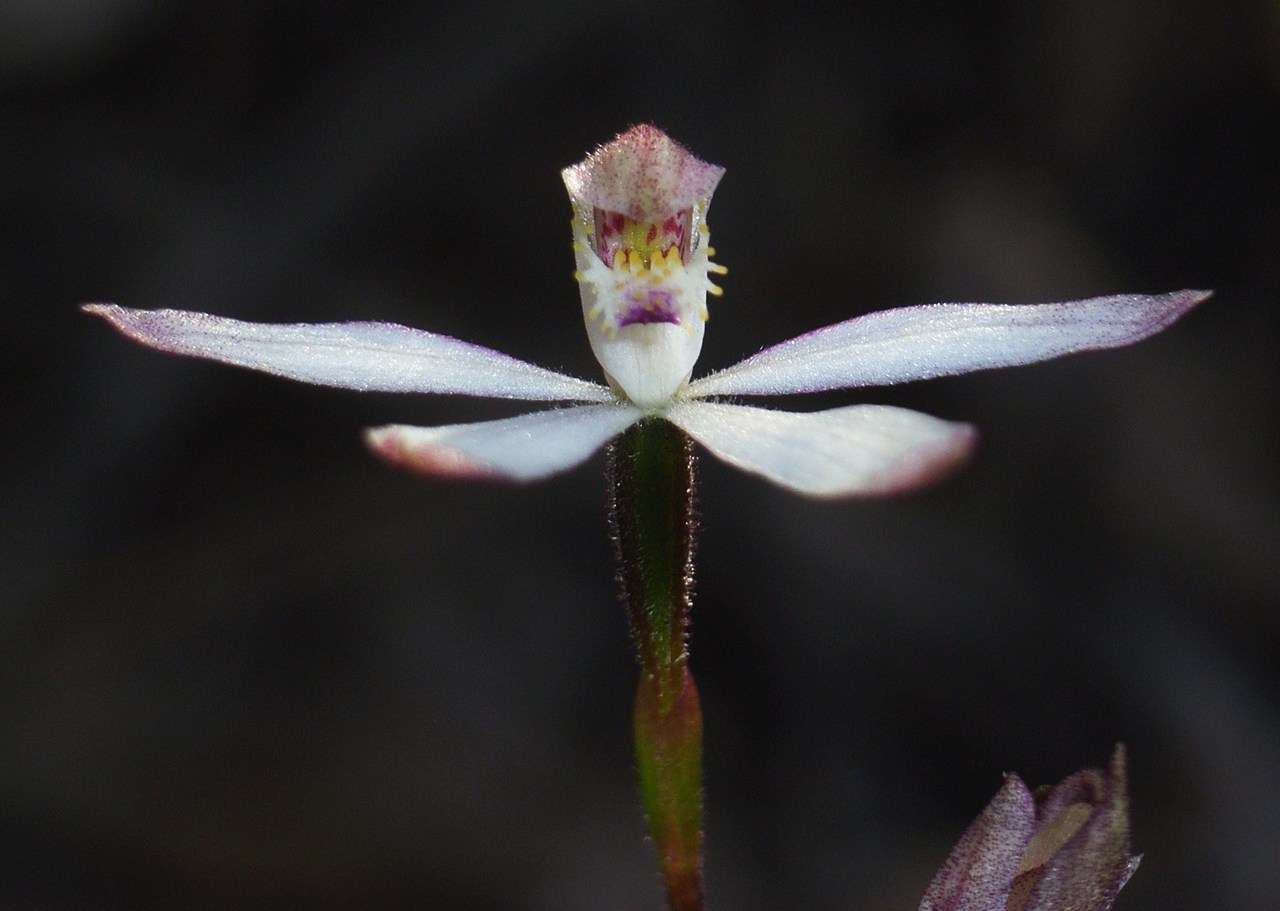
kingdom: Plantae
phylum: Tracheophyta
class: Liliopsida
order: Asparagales
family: Orchidaceae
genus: Caladenia
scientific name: Caladenia dimorpha
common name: Spicy caps
